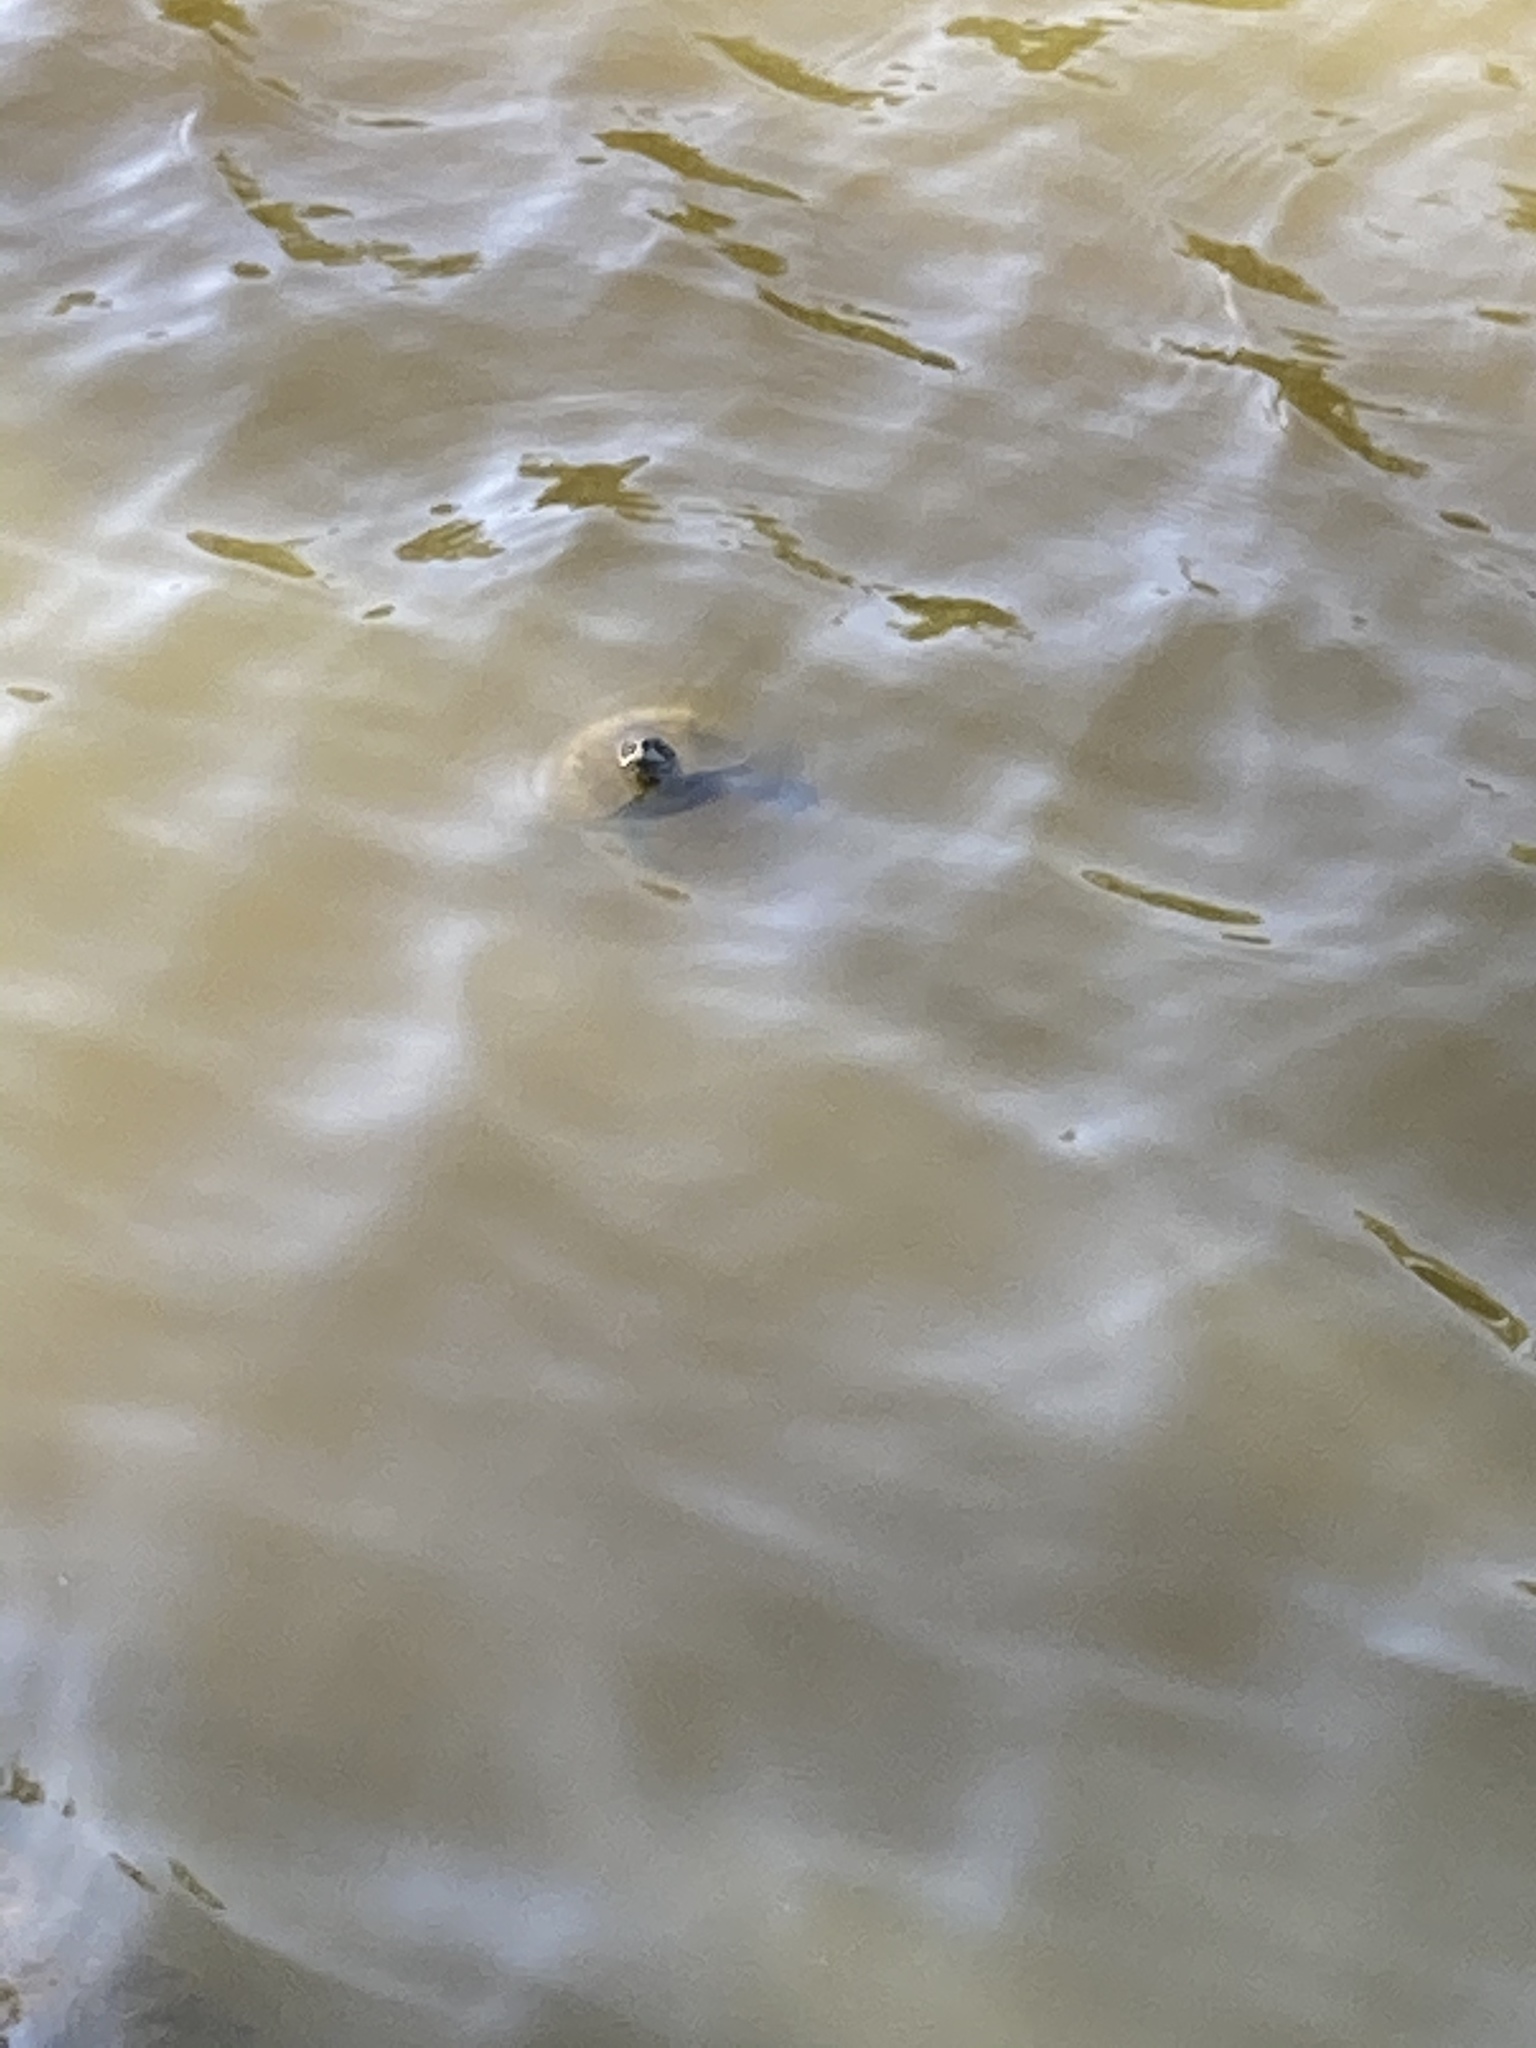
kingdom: Animalia
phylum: Chordata
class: Testudines
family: Geoemydidae
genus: Mauremys
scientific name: Mauremys rivulata
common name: Western caspian turtle
